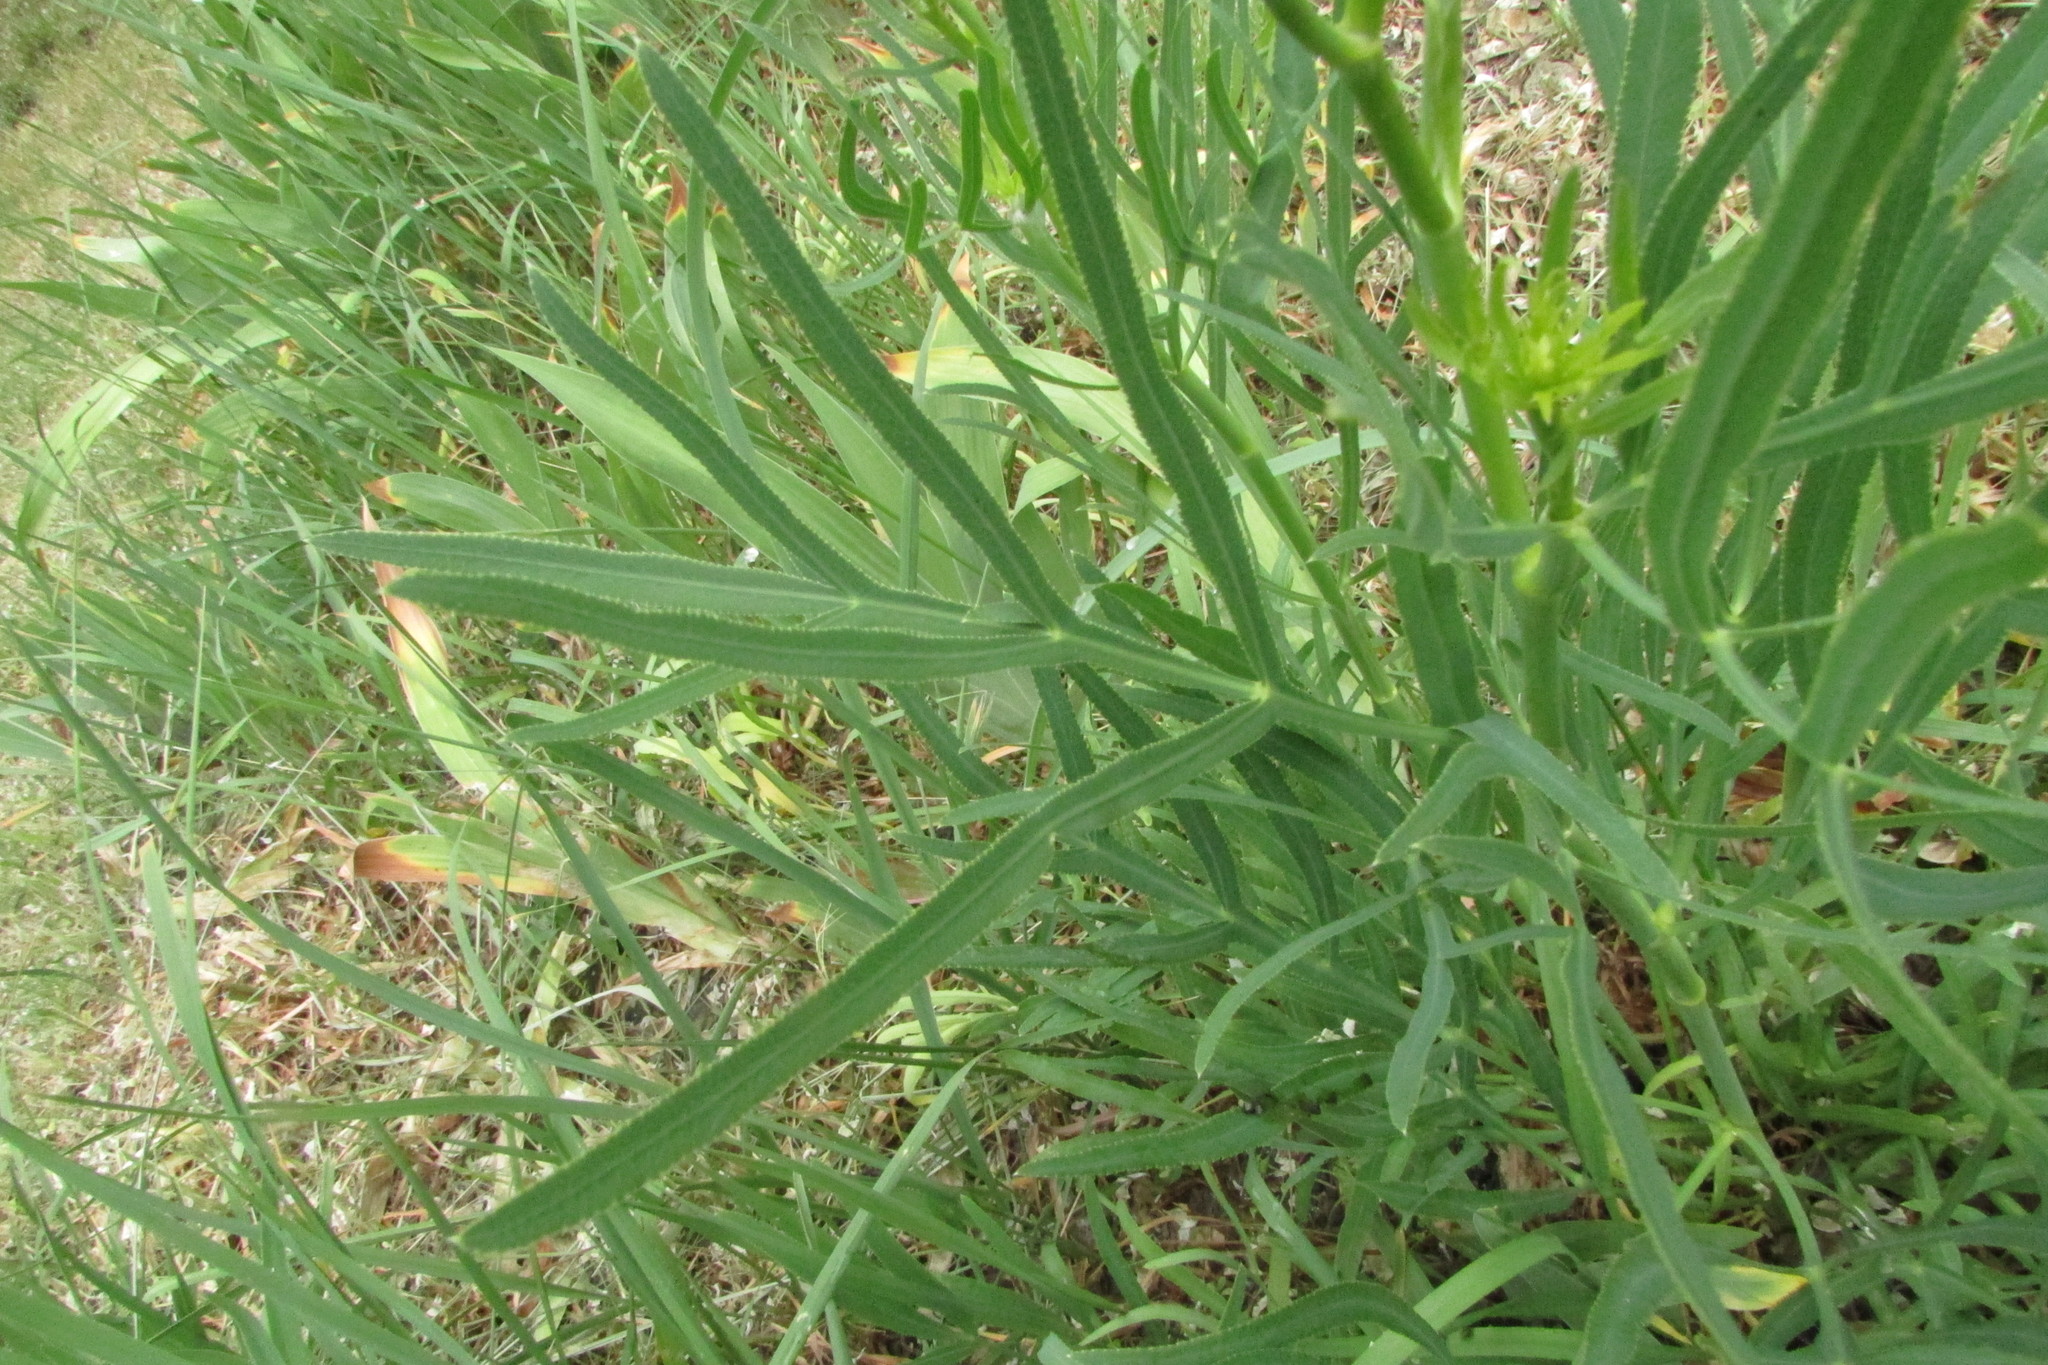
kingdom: Plantae
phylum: Tracheophyta
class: Magnoliopsida
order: Apiales
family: Apiaceae
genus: Falcaria
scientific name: Falcaria vulgaris
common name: Longleaf
